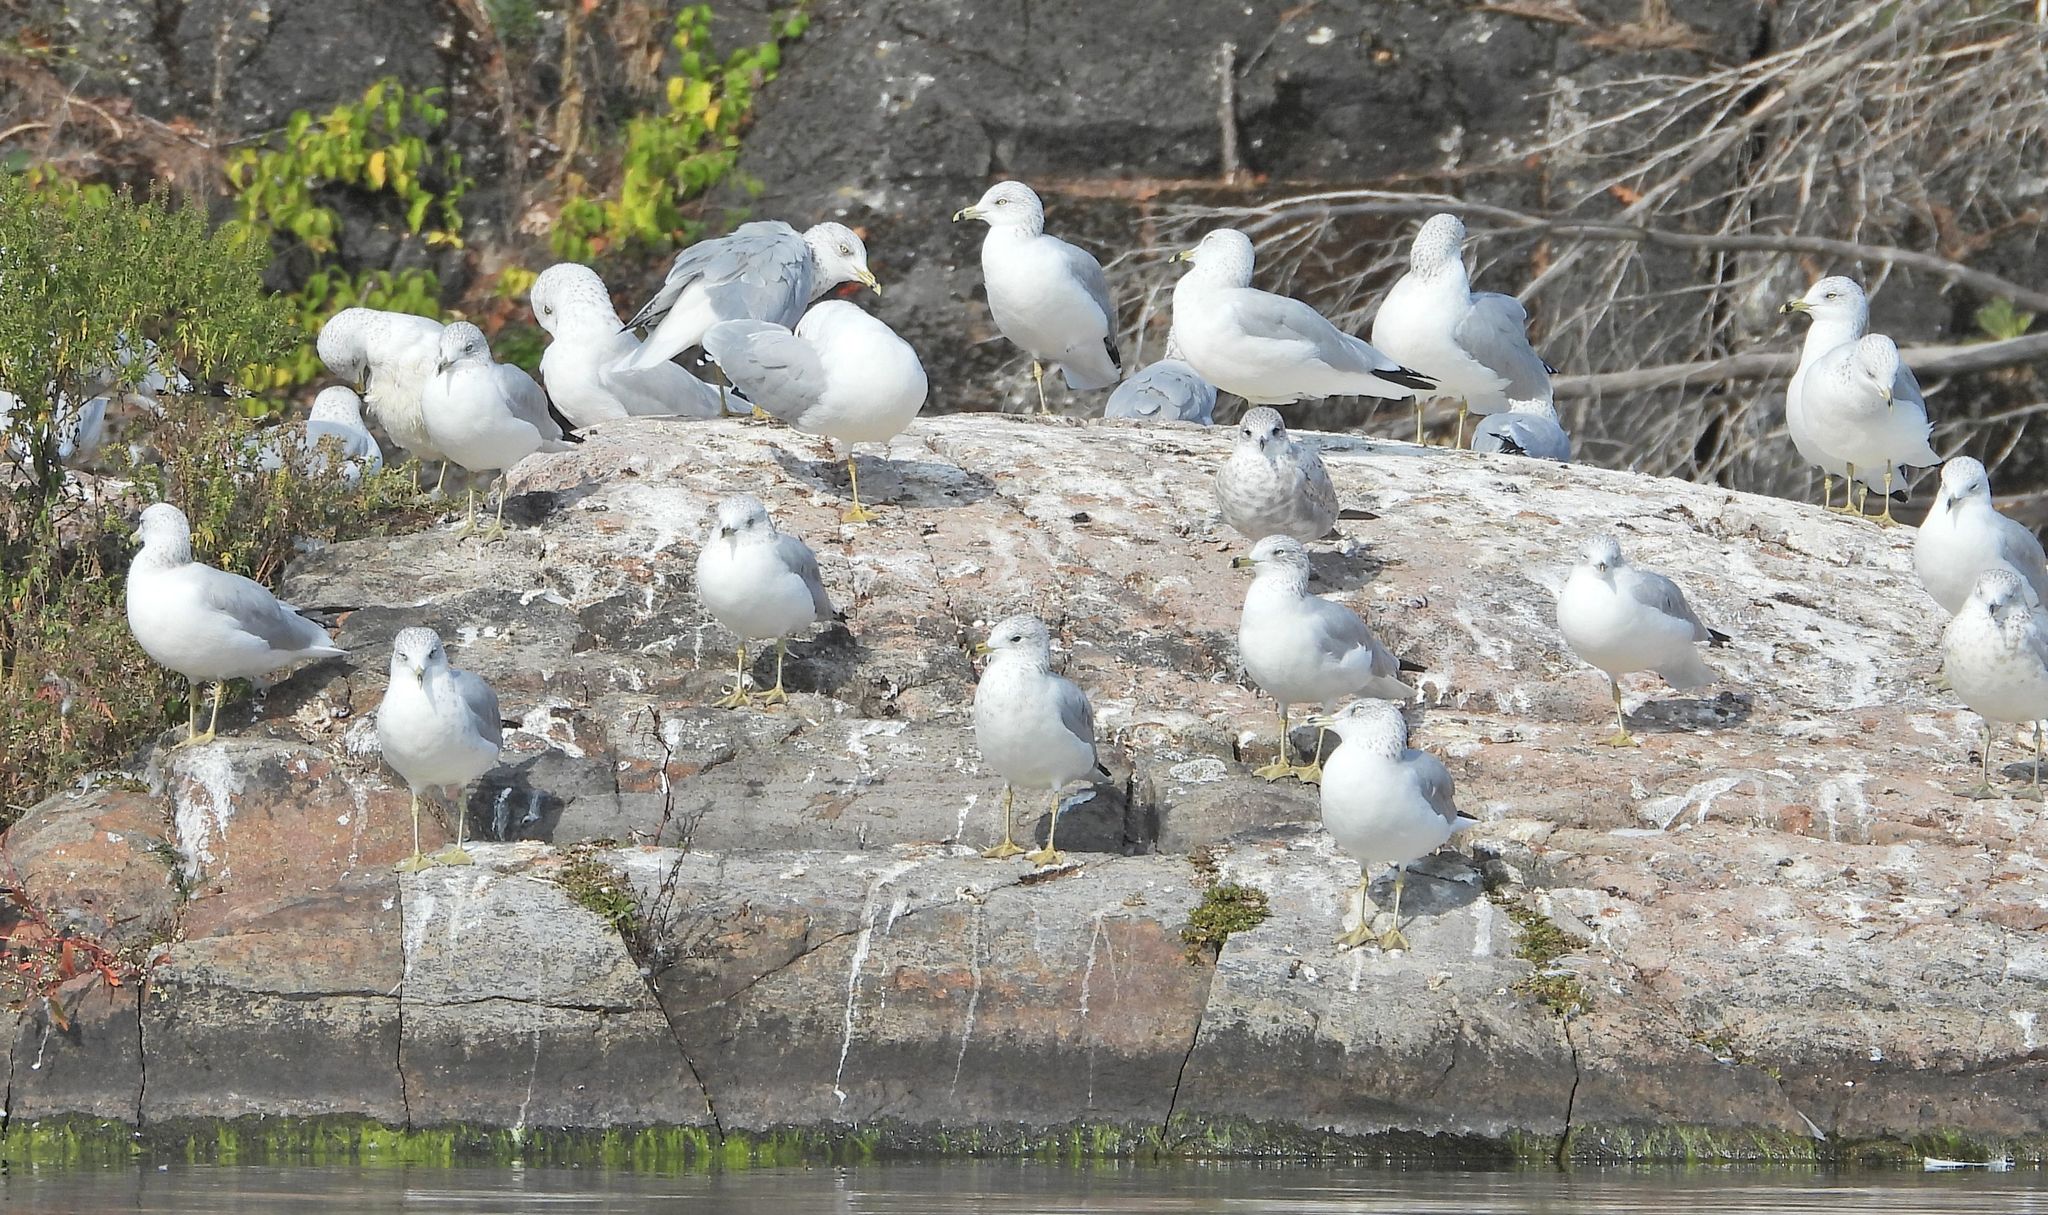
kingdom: Animalia
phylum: Chordata
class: Aves
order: Charadriiformes
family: Laridae
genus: Larus
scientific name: Larus delawarensis
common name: Ring-billed gull
